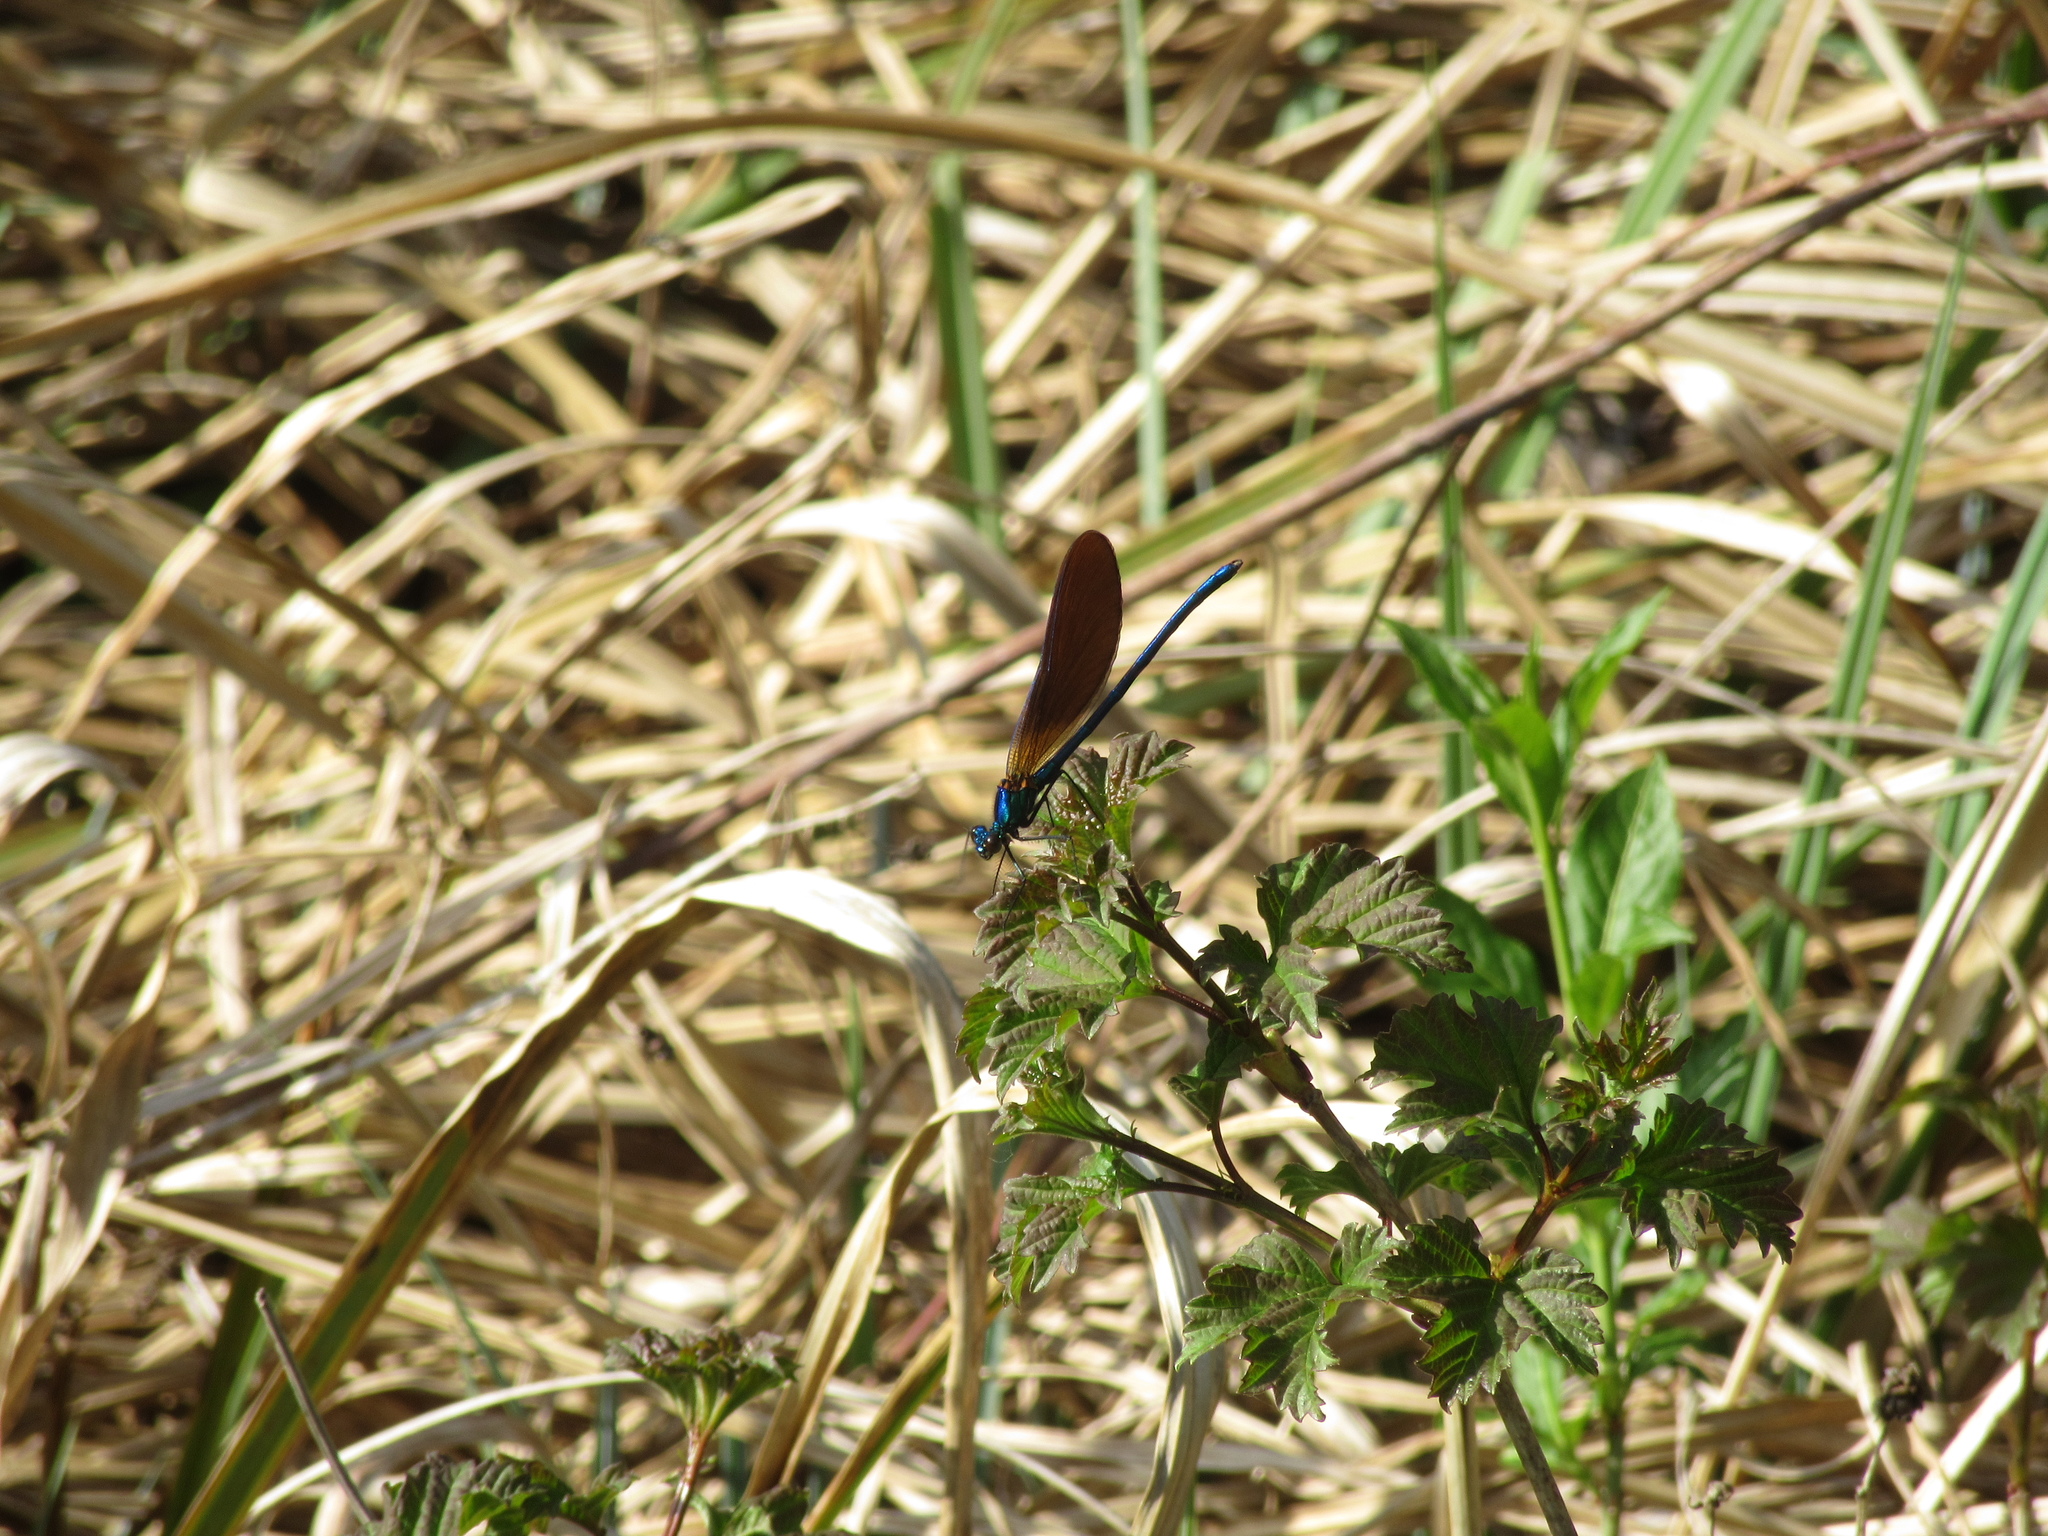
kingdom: Animalia
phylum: Arthropoda
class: Insecta
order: Odonata
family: Calopterygidae
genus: Calopteryx
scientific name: Calopteryx virgo
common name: Beautiful demoiselle
